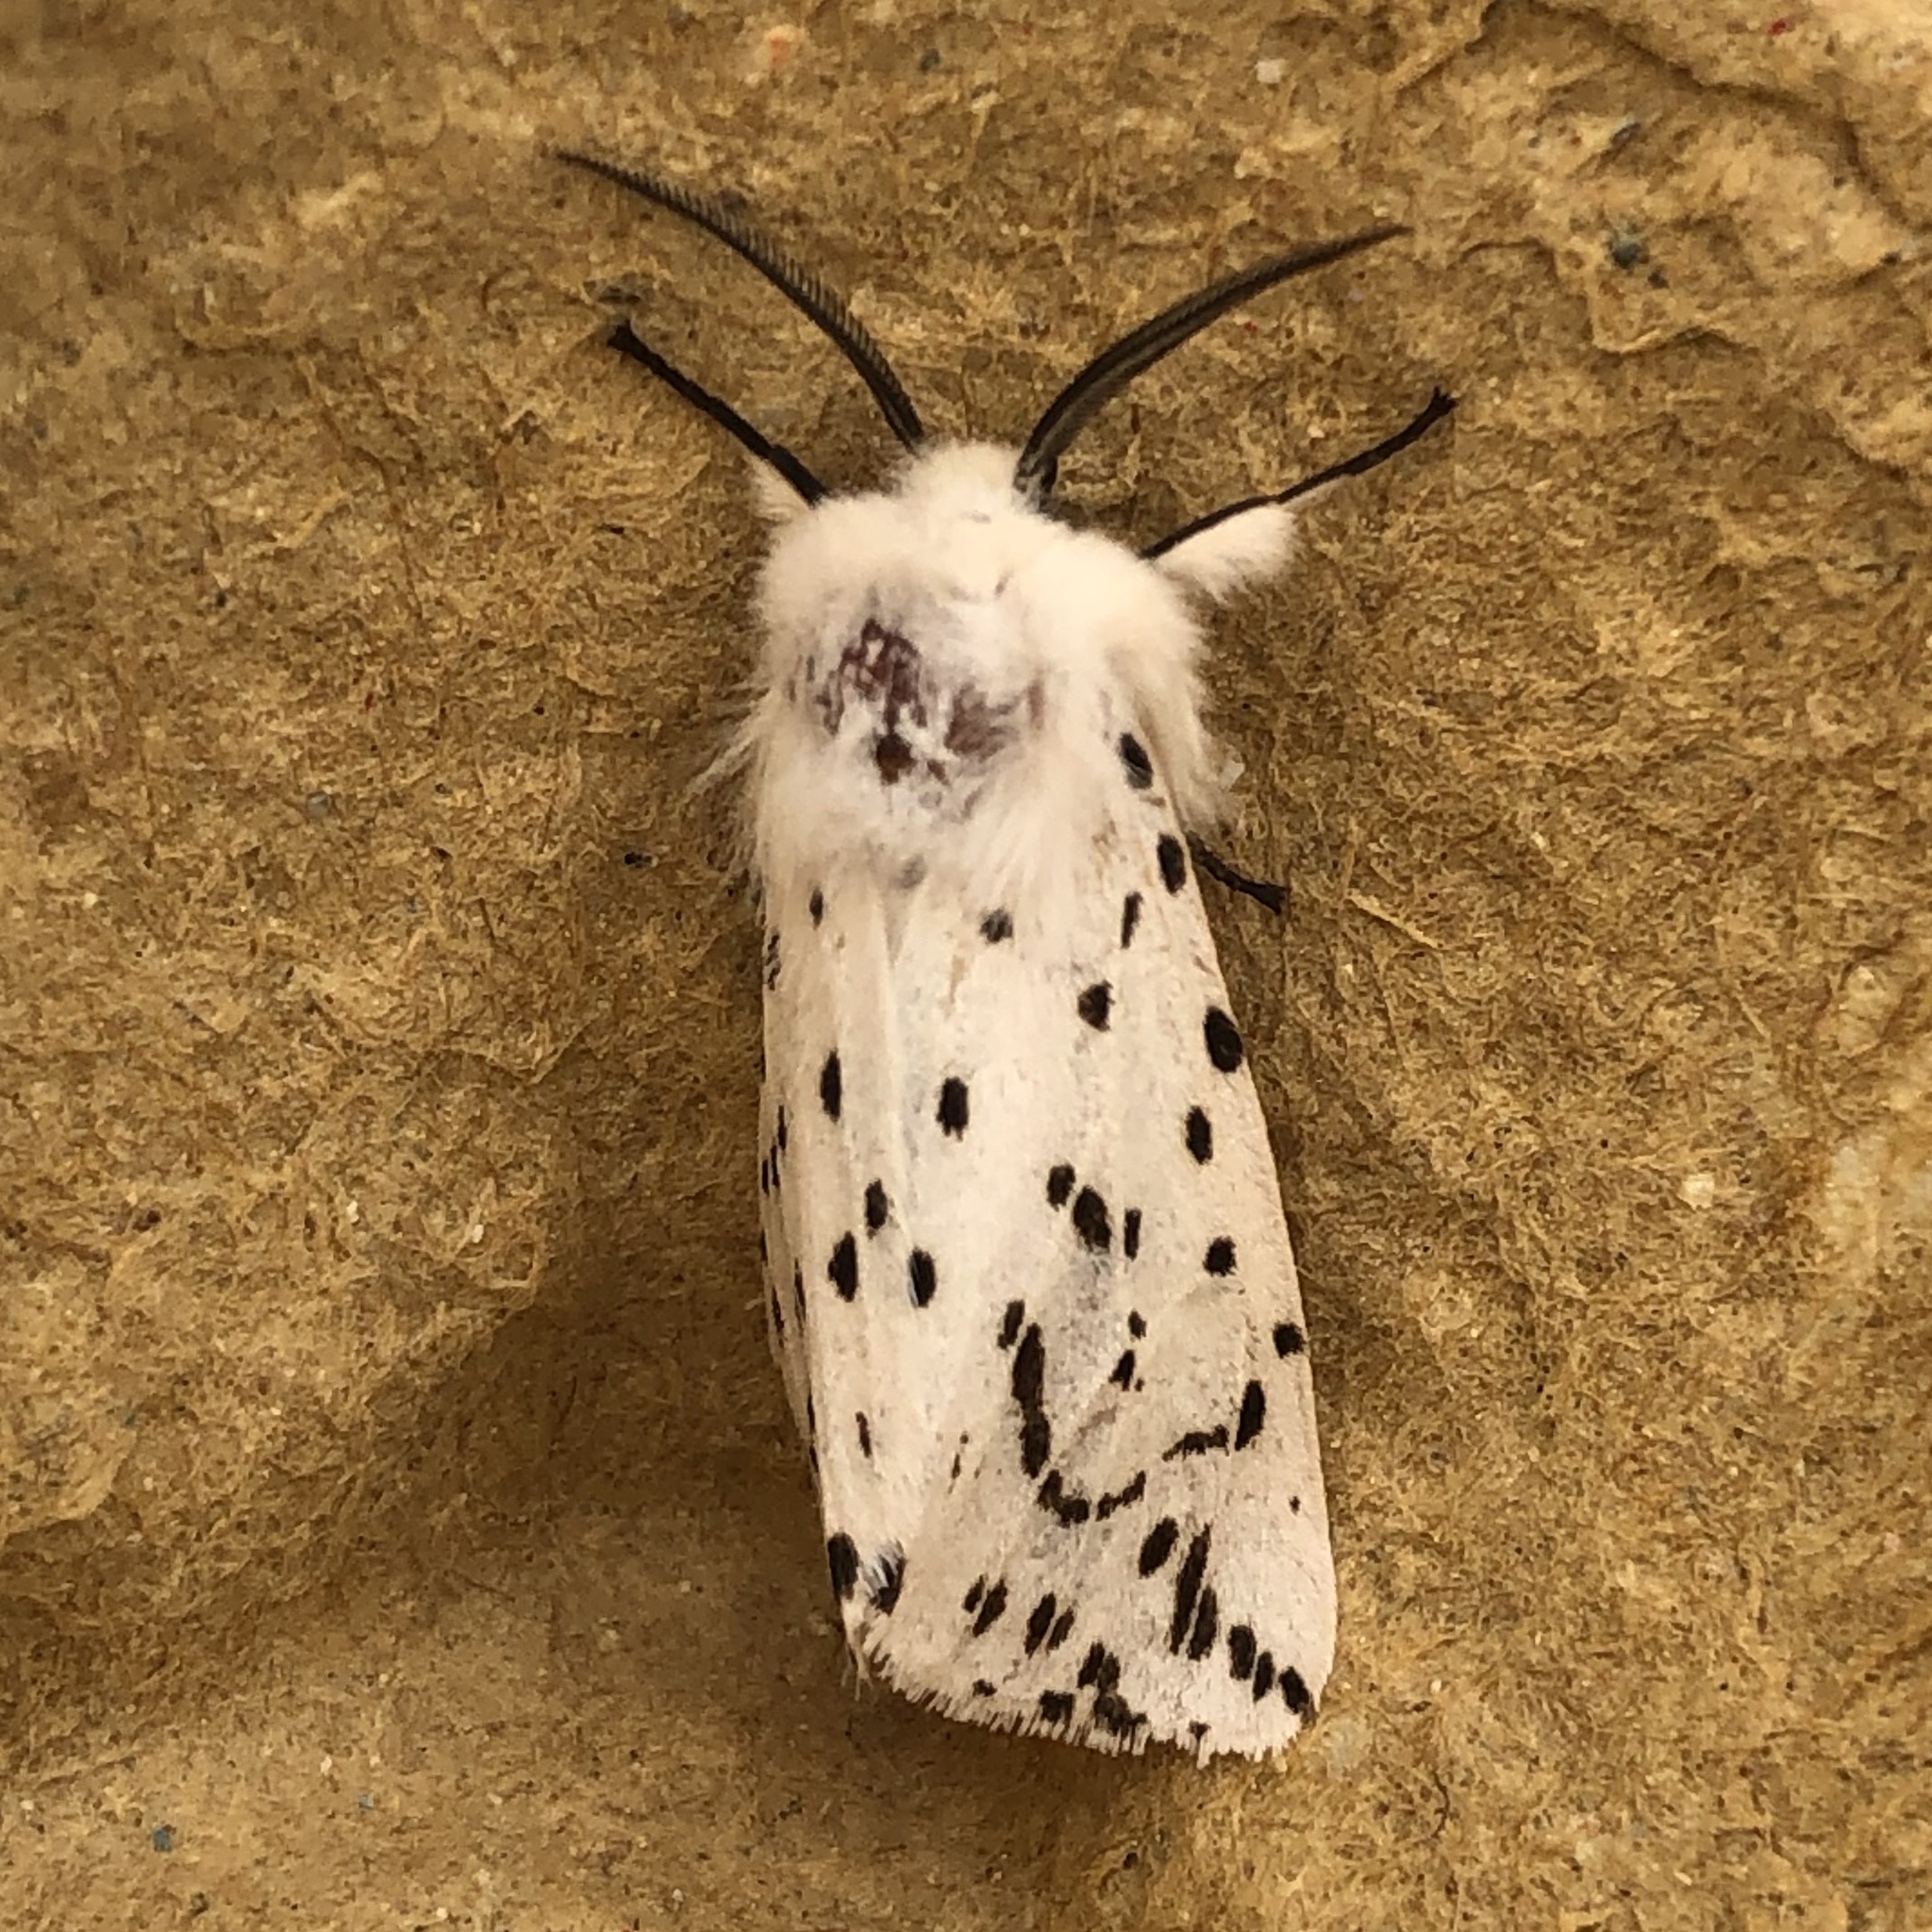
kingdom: Animalia
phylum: Arthropoda
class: Insecta
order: Lepidoptera
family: Erebidae
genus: Spilosoma
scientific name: Spilosoma lubricipeda
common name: White ermine
